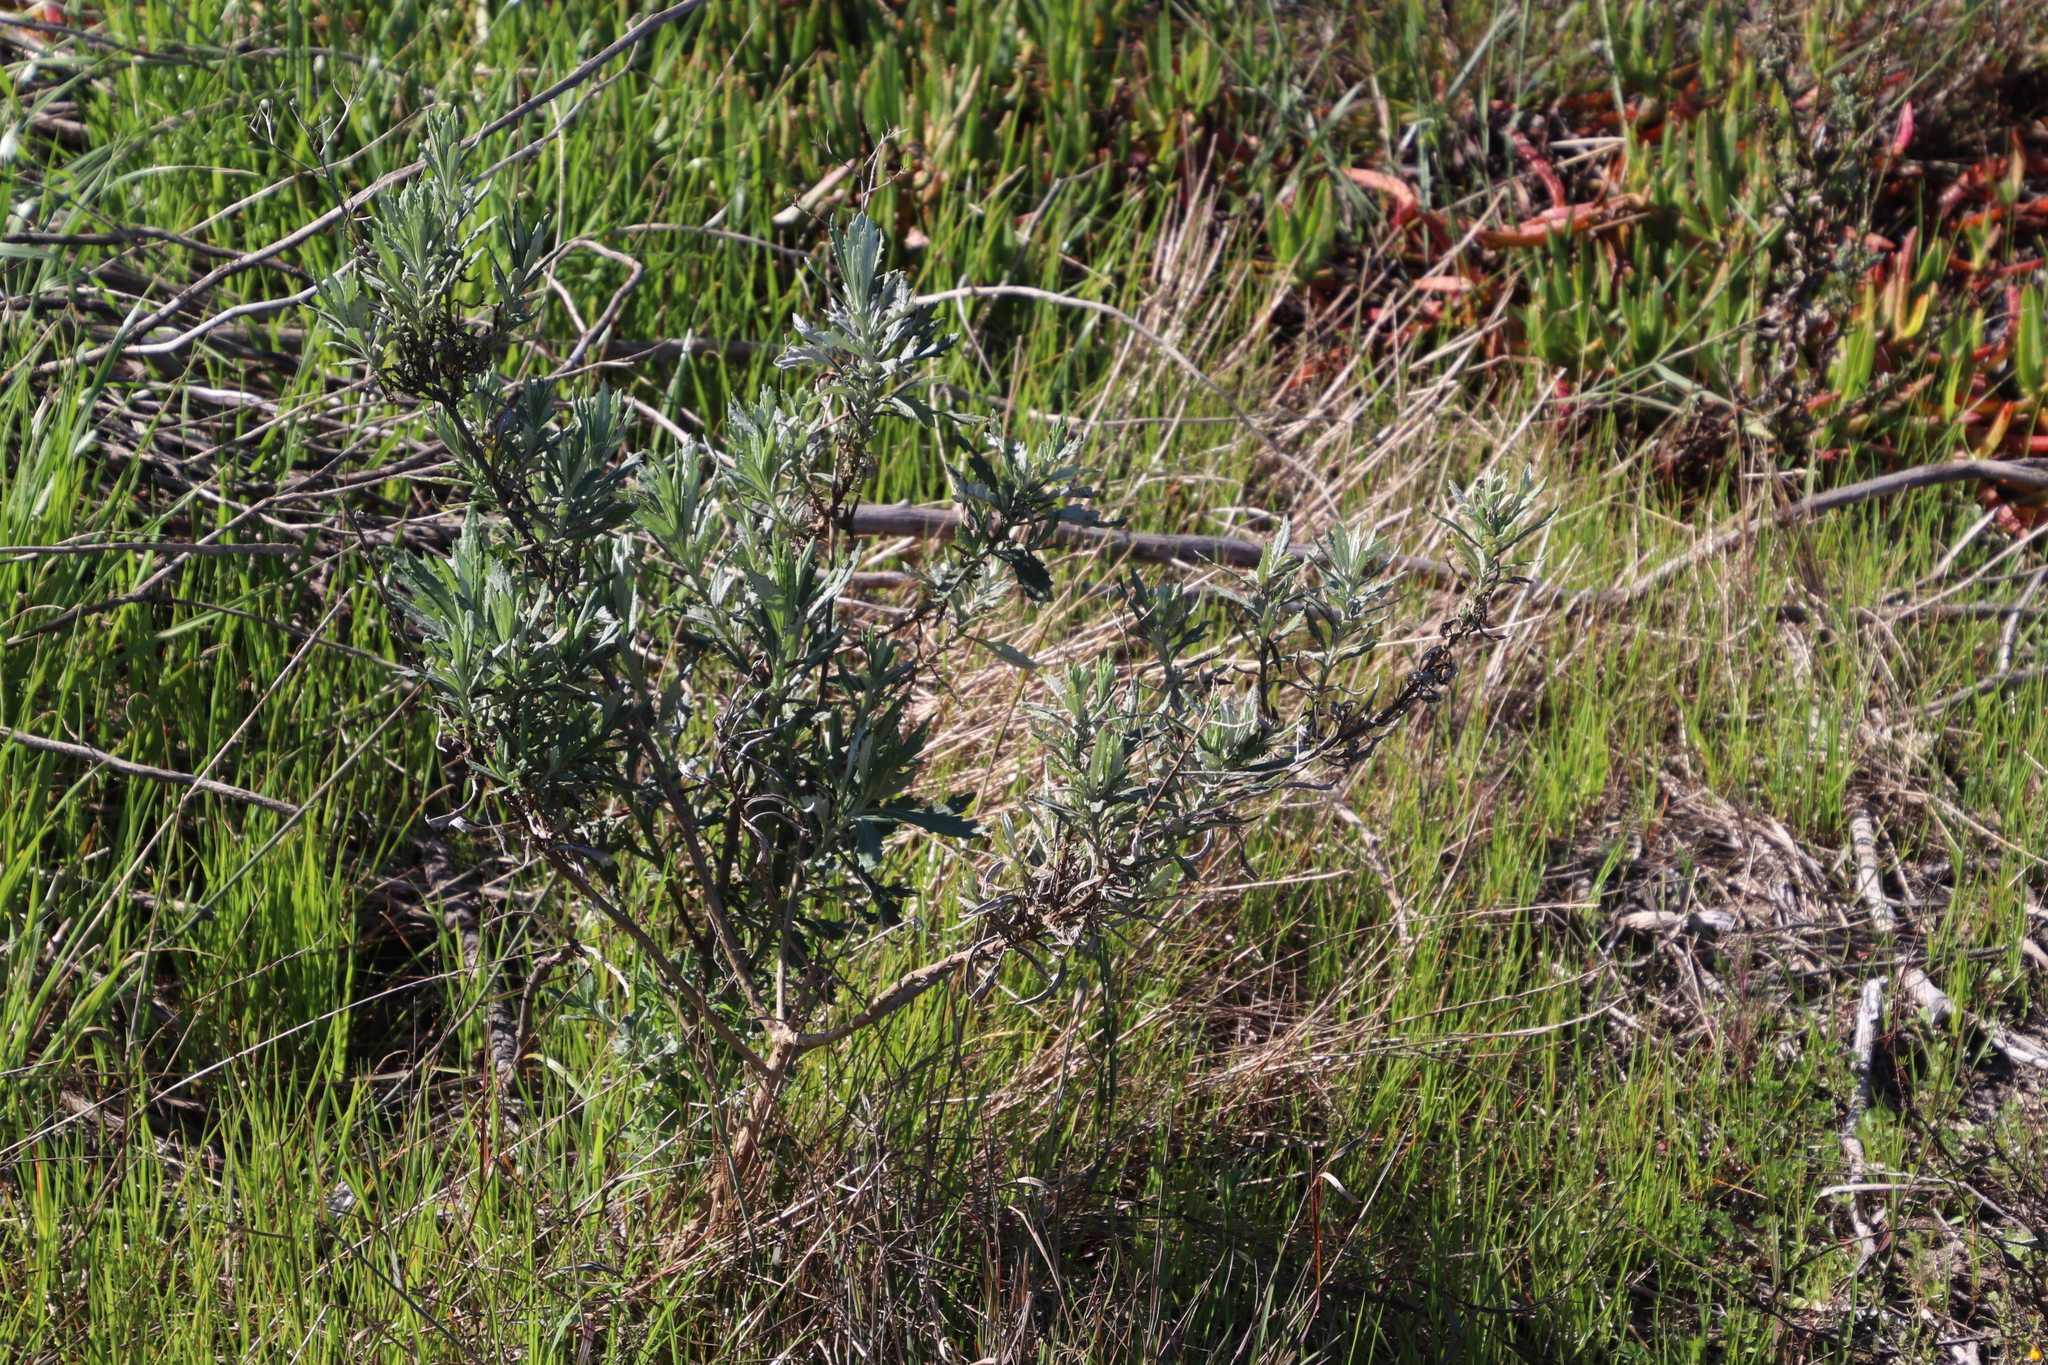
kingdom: Plantae
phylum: Tracheophyta
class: Magnoliopsida
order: Asterales
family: Asteraceae
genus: Senecio
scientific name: Senecio pterophorus
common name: Shoddy ragwort
